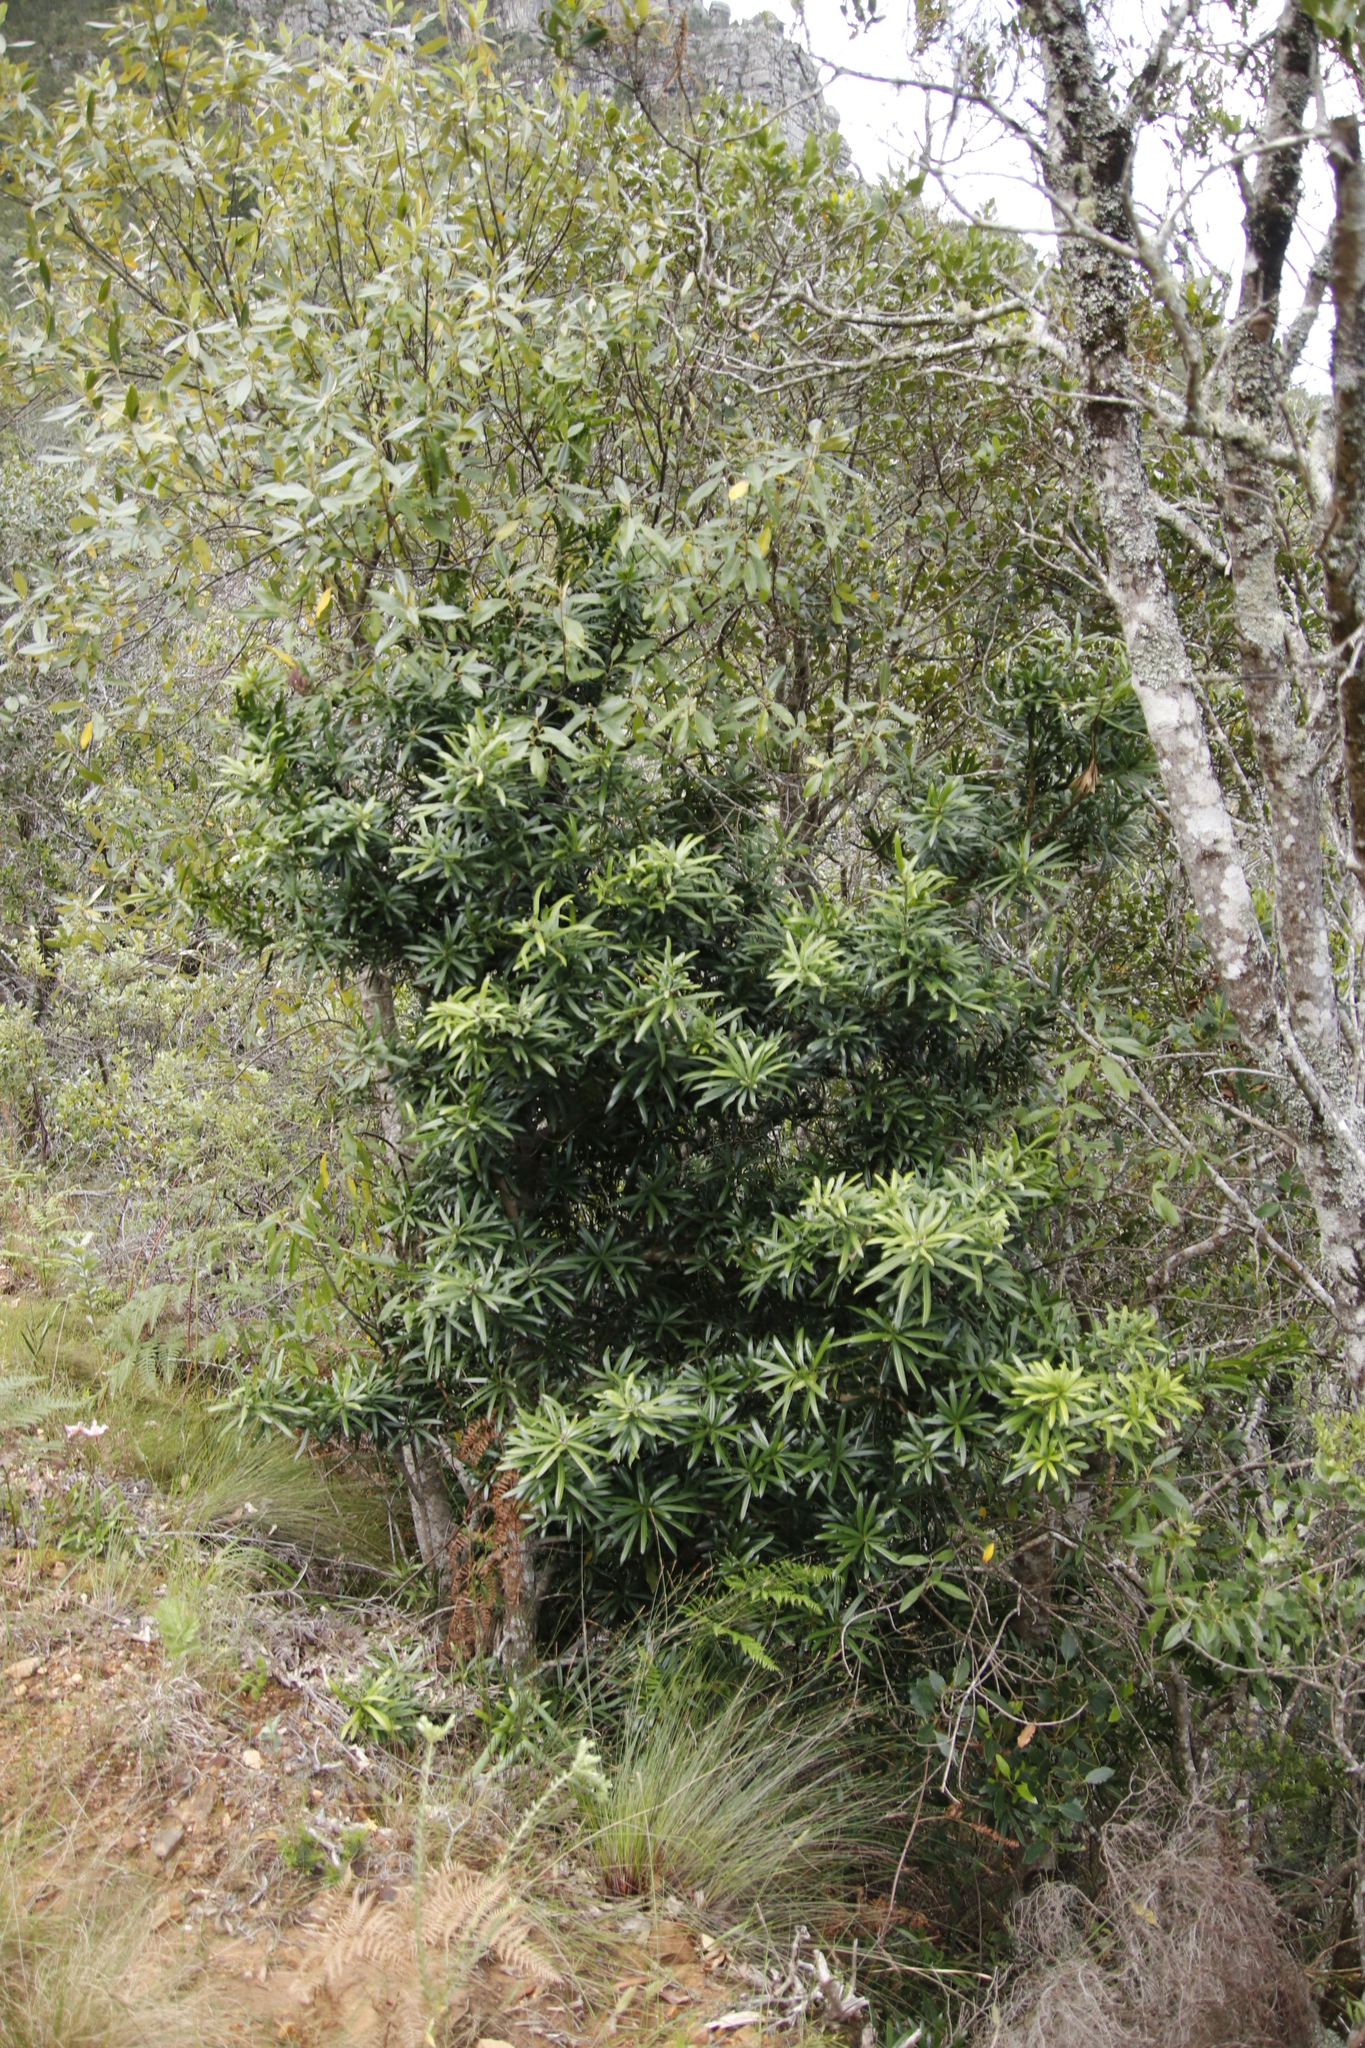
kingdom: Plantae
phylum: Tracheophyta
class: Pinopsida
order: Pinales
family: Podocarpaceae
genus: Podocarpus
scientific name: Podocarpus latifolius
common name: True yellowwood
